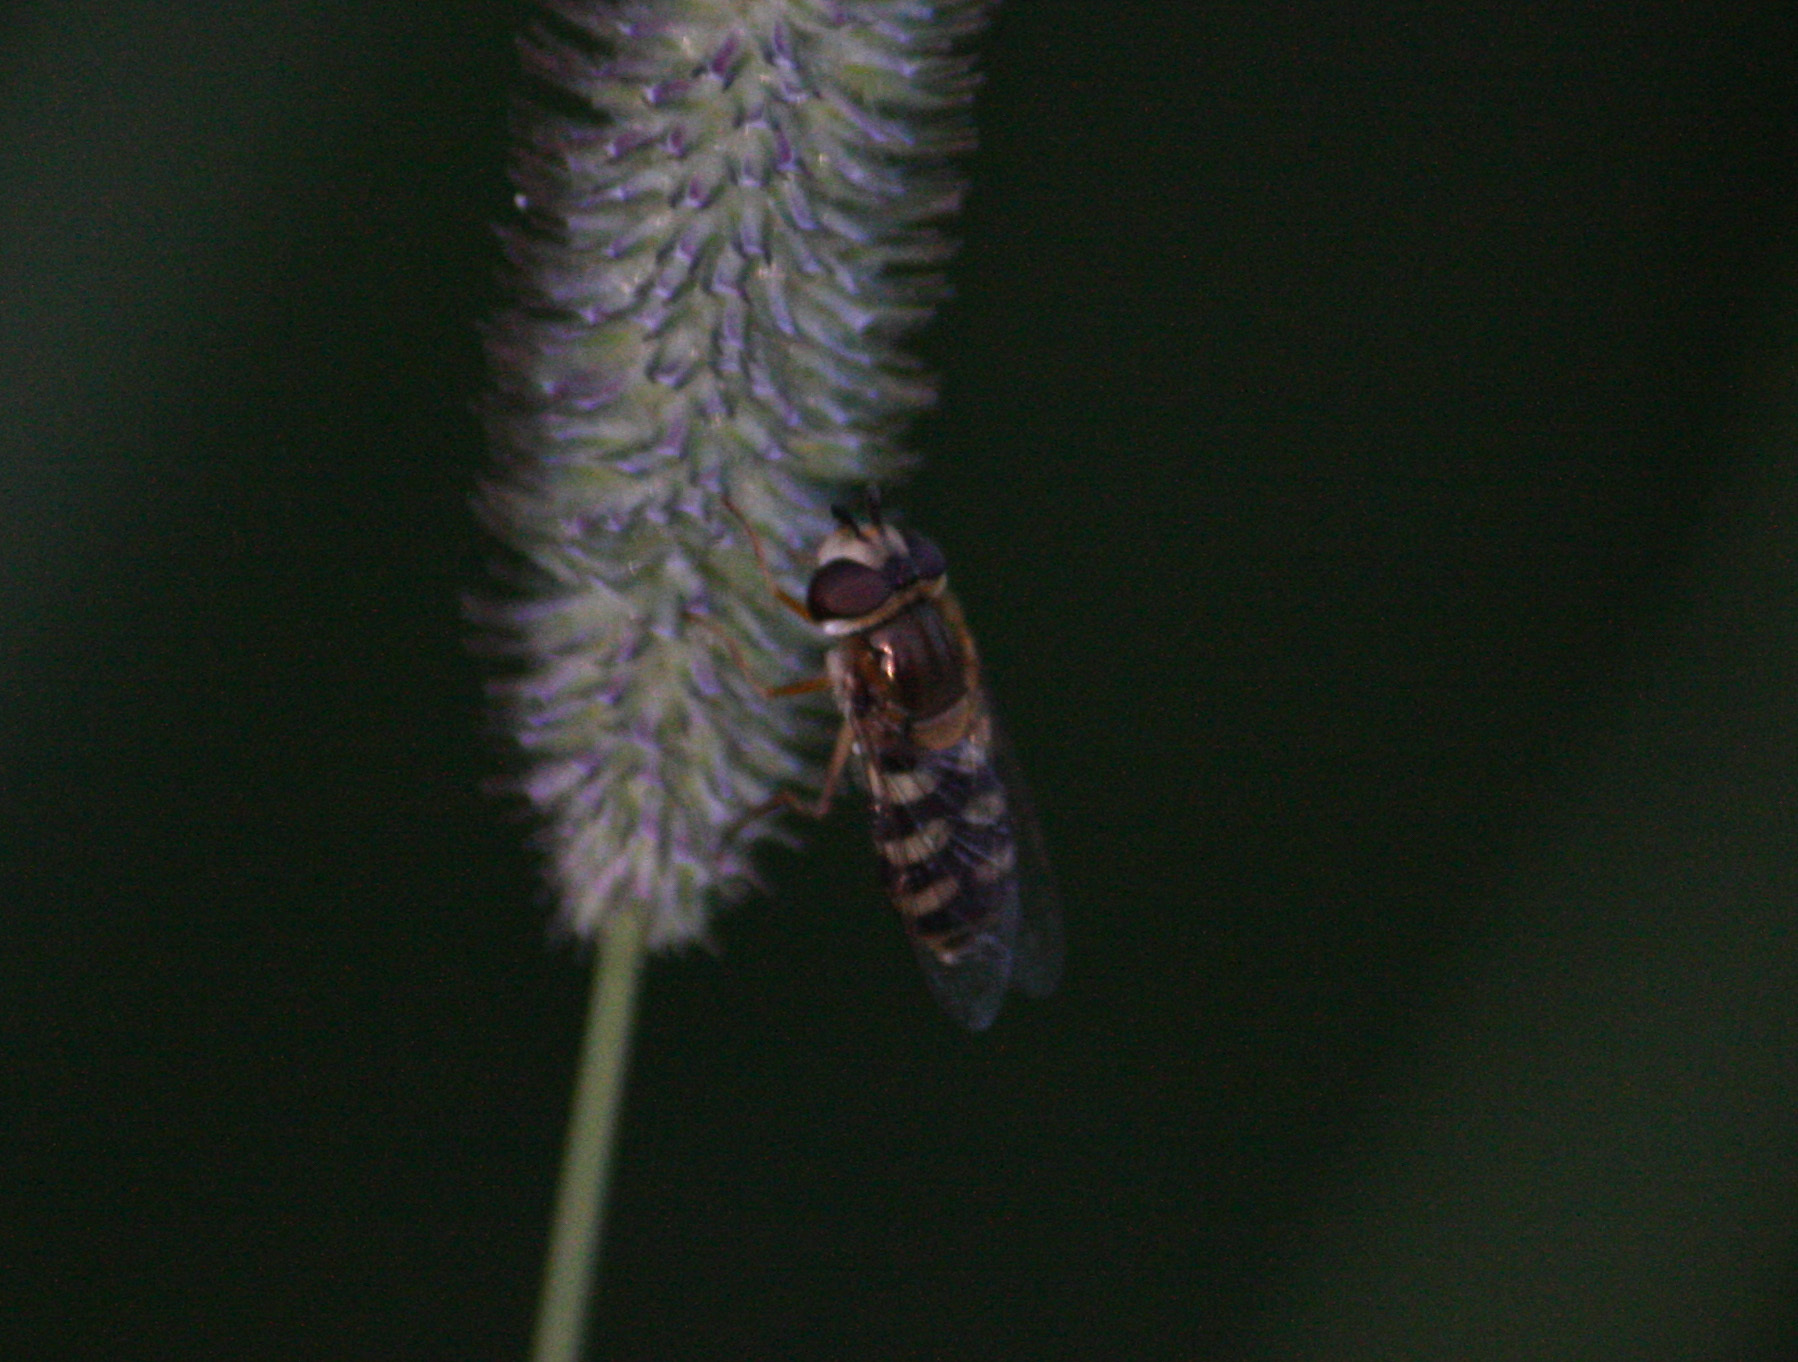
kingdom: Animalia
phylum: Arthropoda
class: Insecta
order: Diptera
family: Syrphidae
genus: Eupeodes
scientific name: Eupeodes
